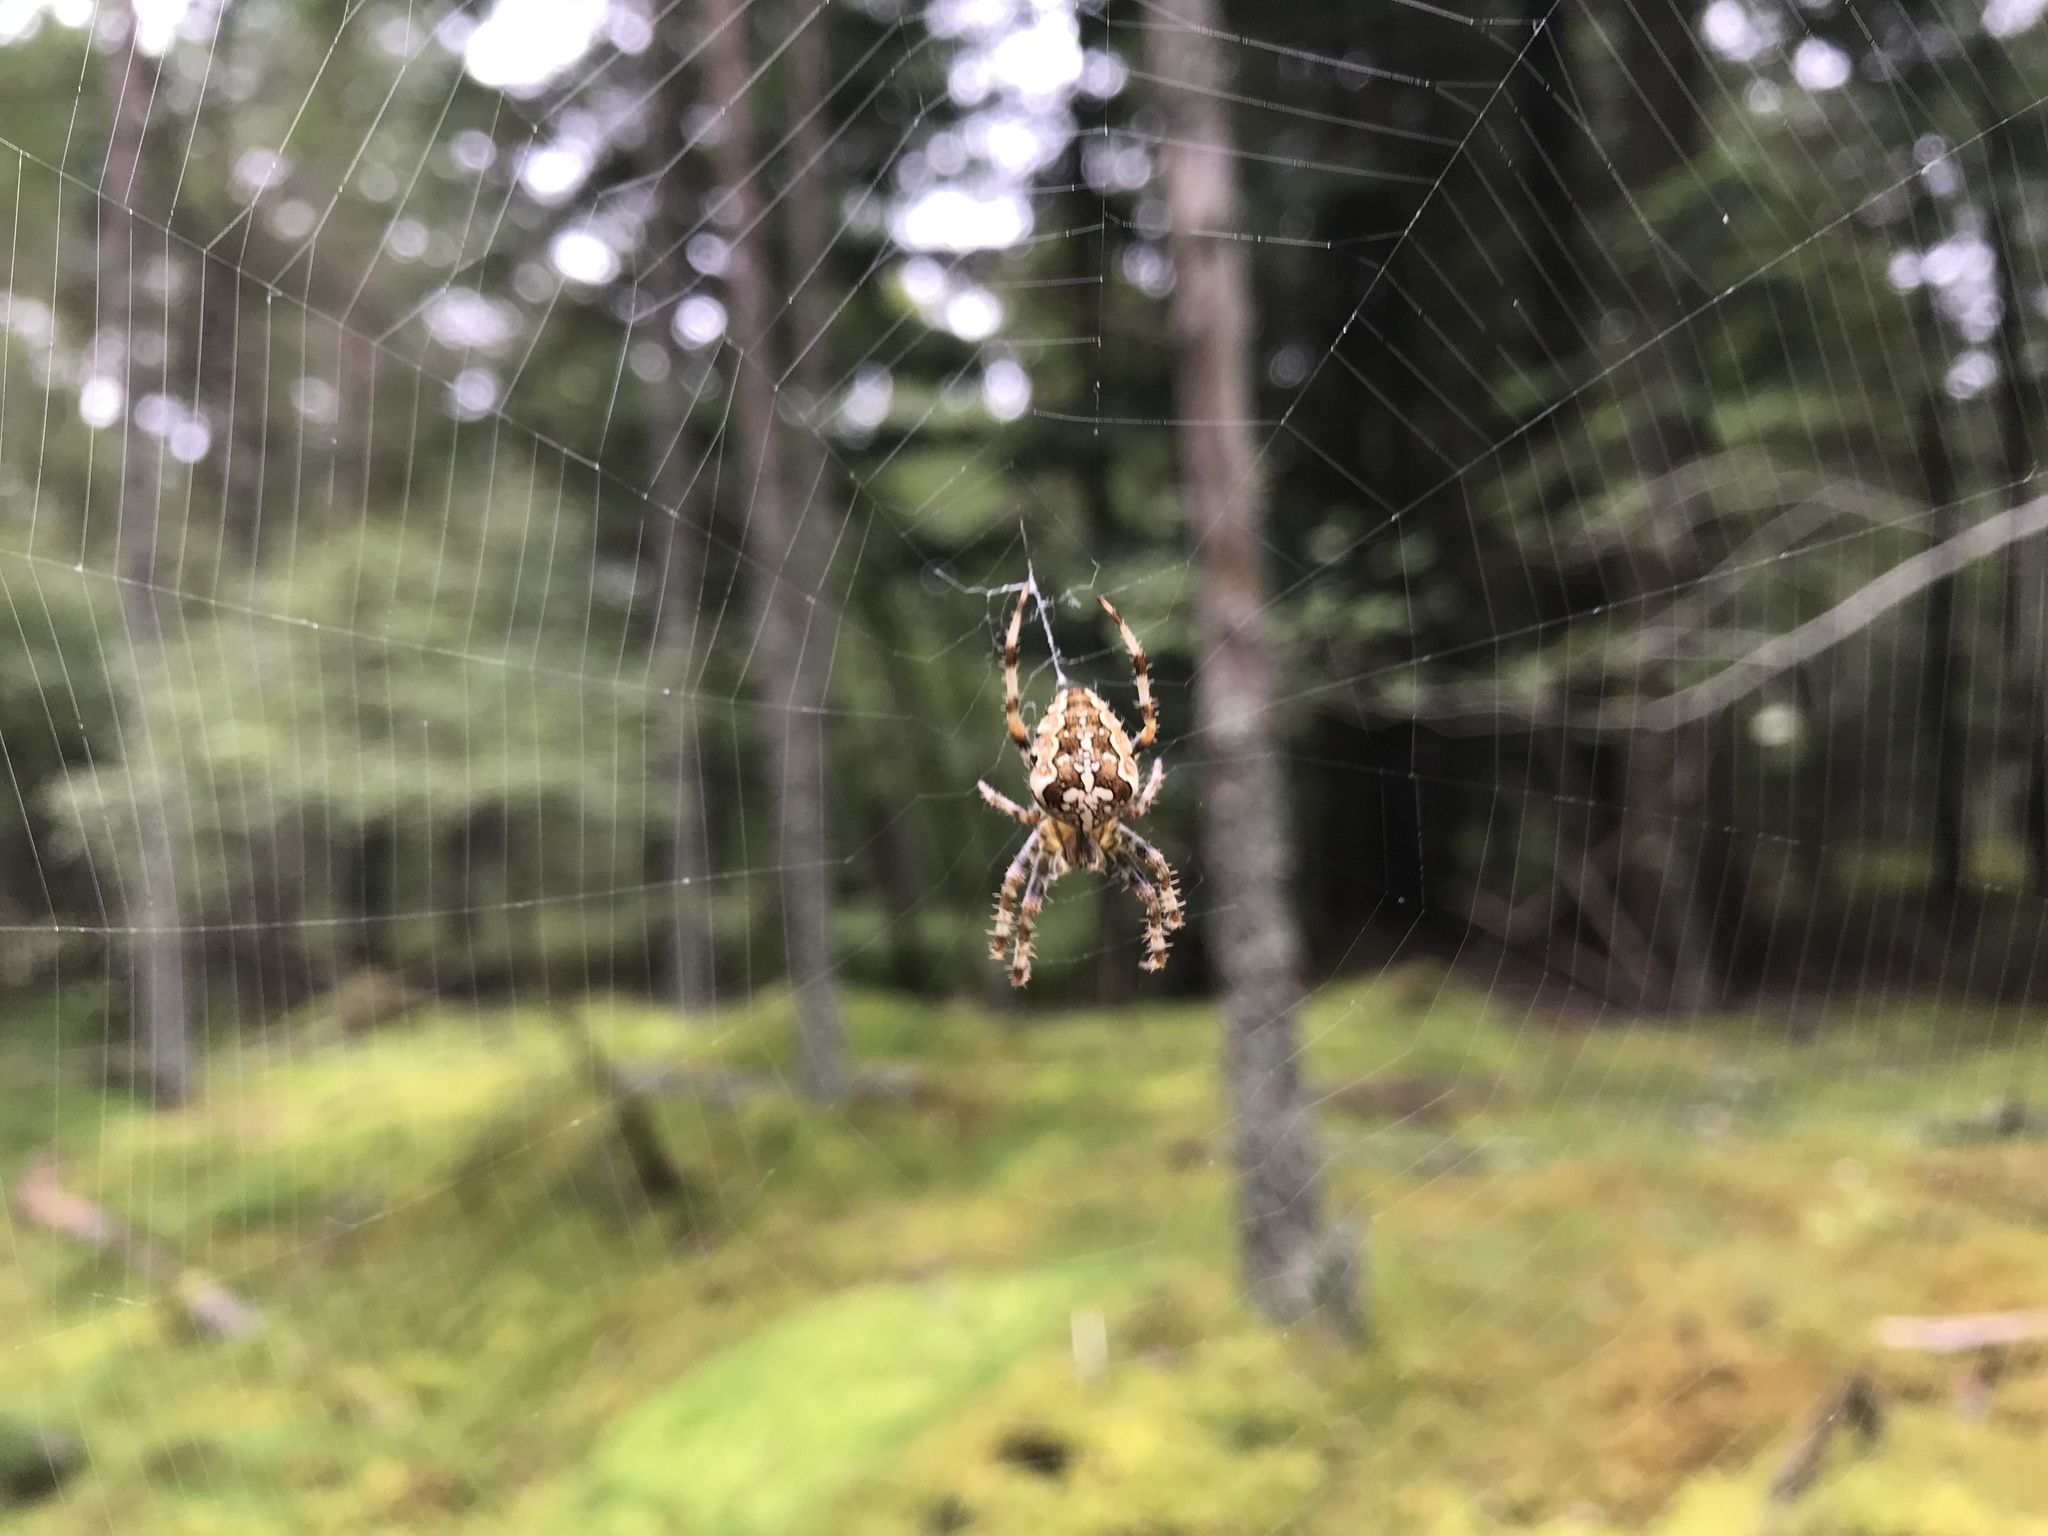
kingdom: Animalia
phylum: Arthropoda
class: Arachnida
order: Araneae
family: Araneidae
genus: Araneus
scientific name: Araneus diadematus
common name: Cross orbweaver
